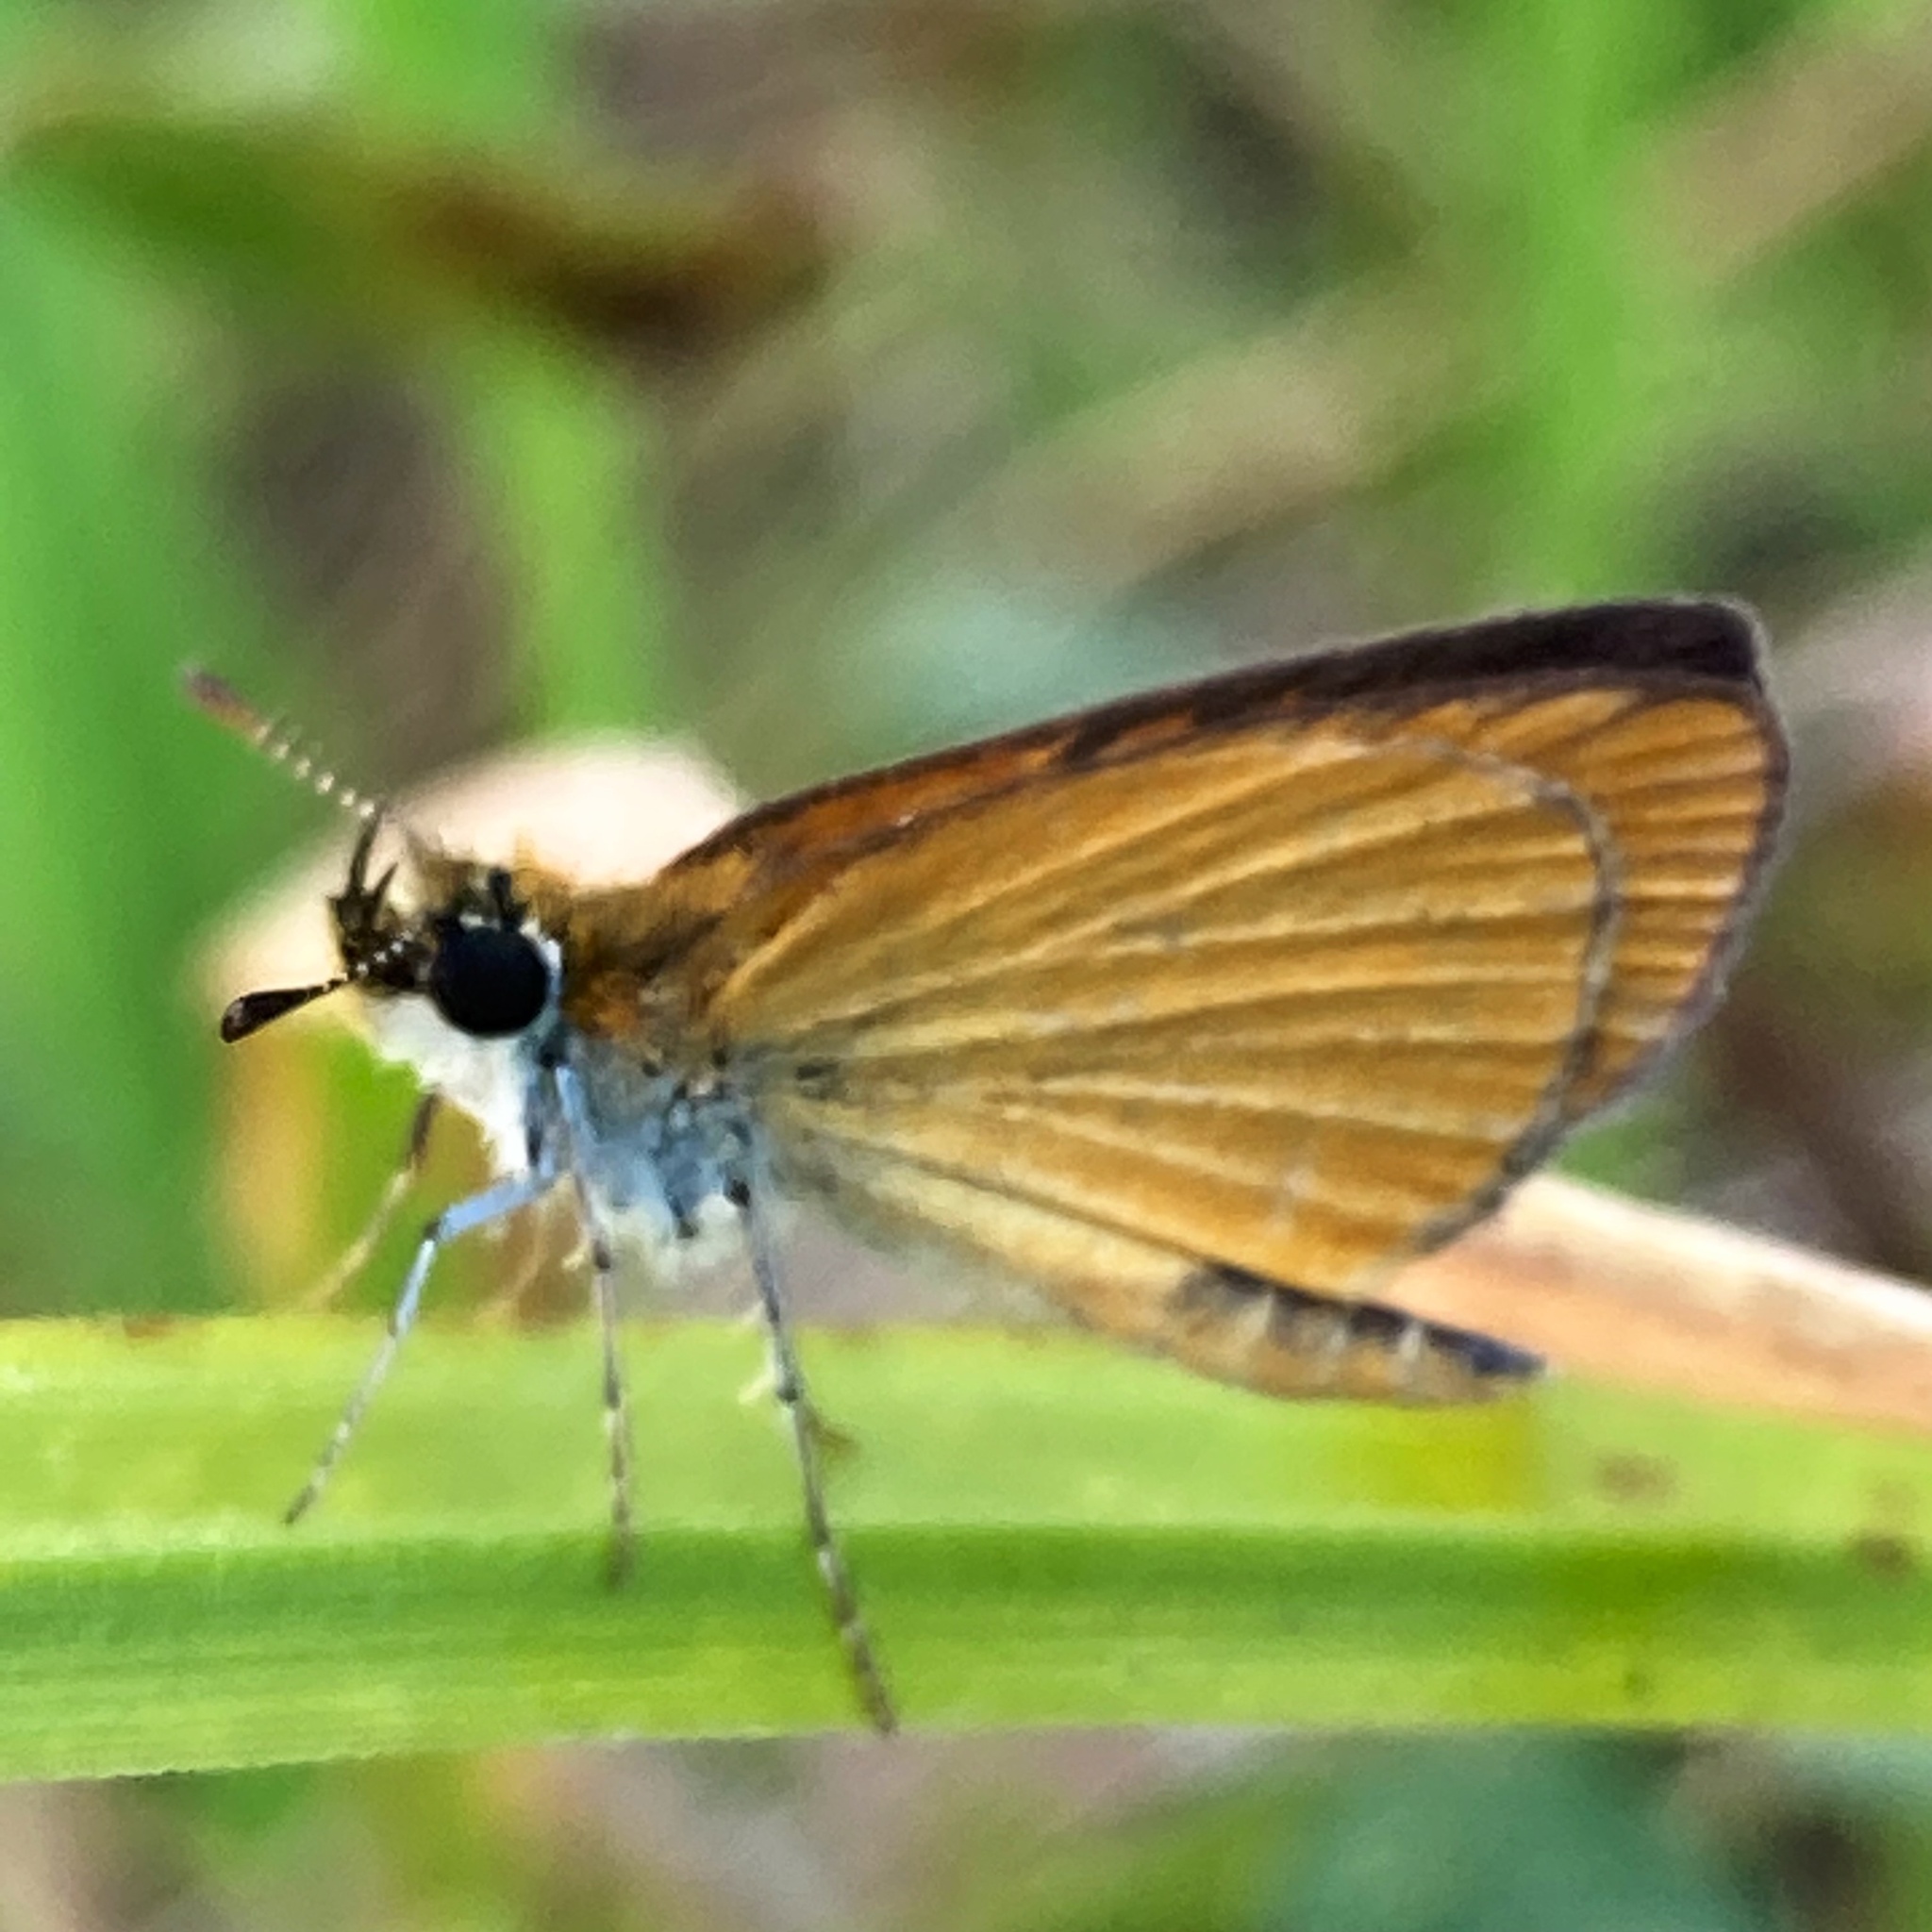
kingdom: Animalia
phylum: Arthropoda
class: Insecta
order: Lepidoptera
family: Hesperiidae
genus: Ancyloxypha
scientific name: Ancyloxypha numitor
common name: Least skipper
